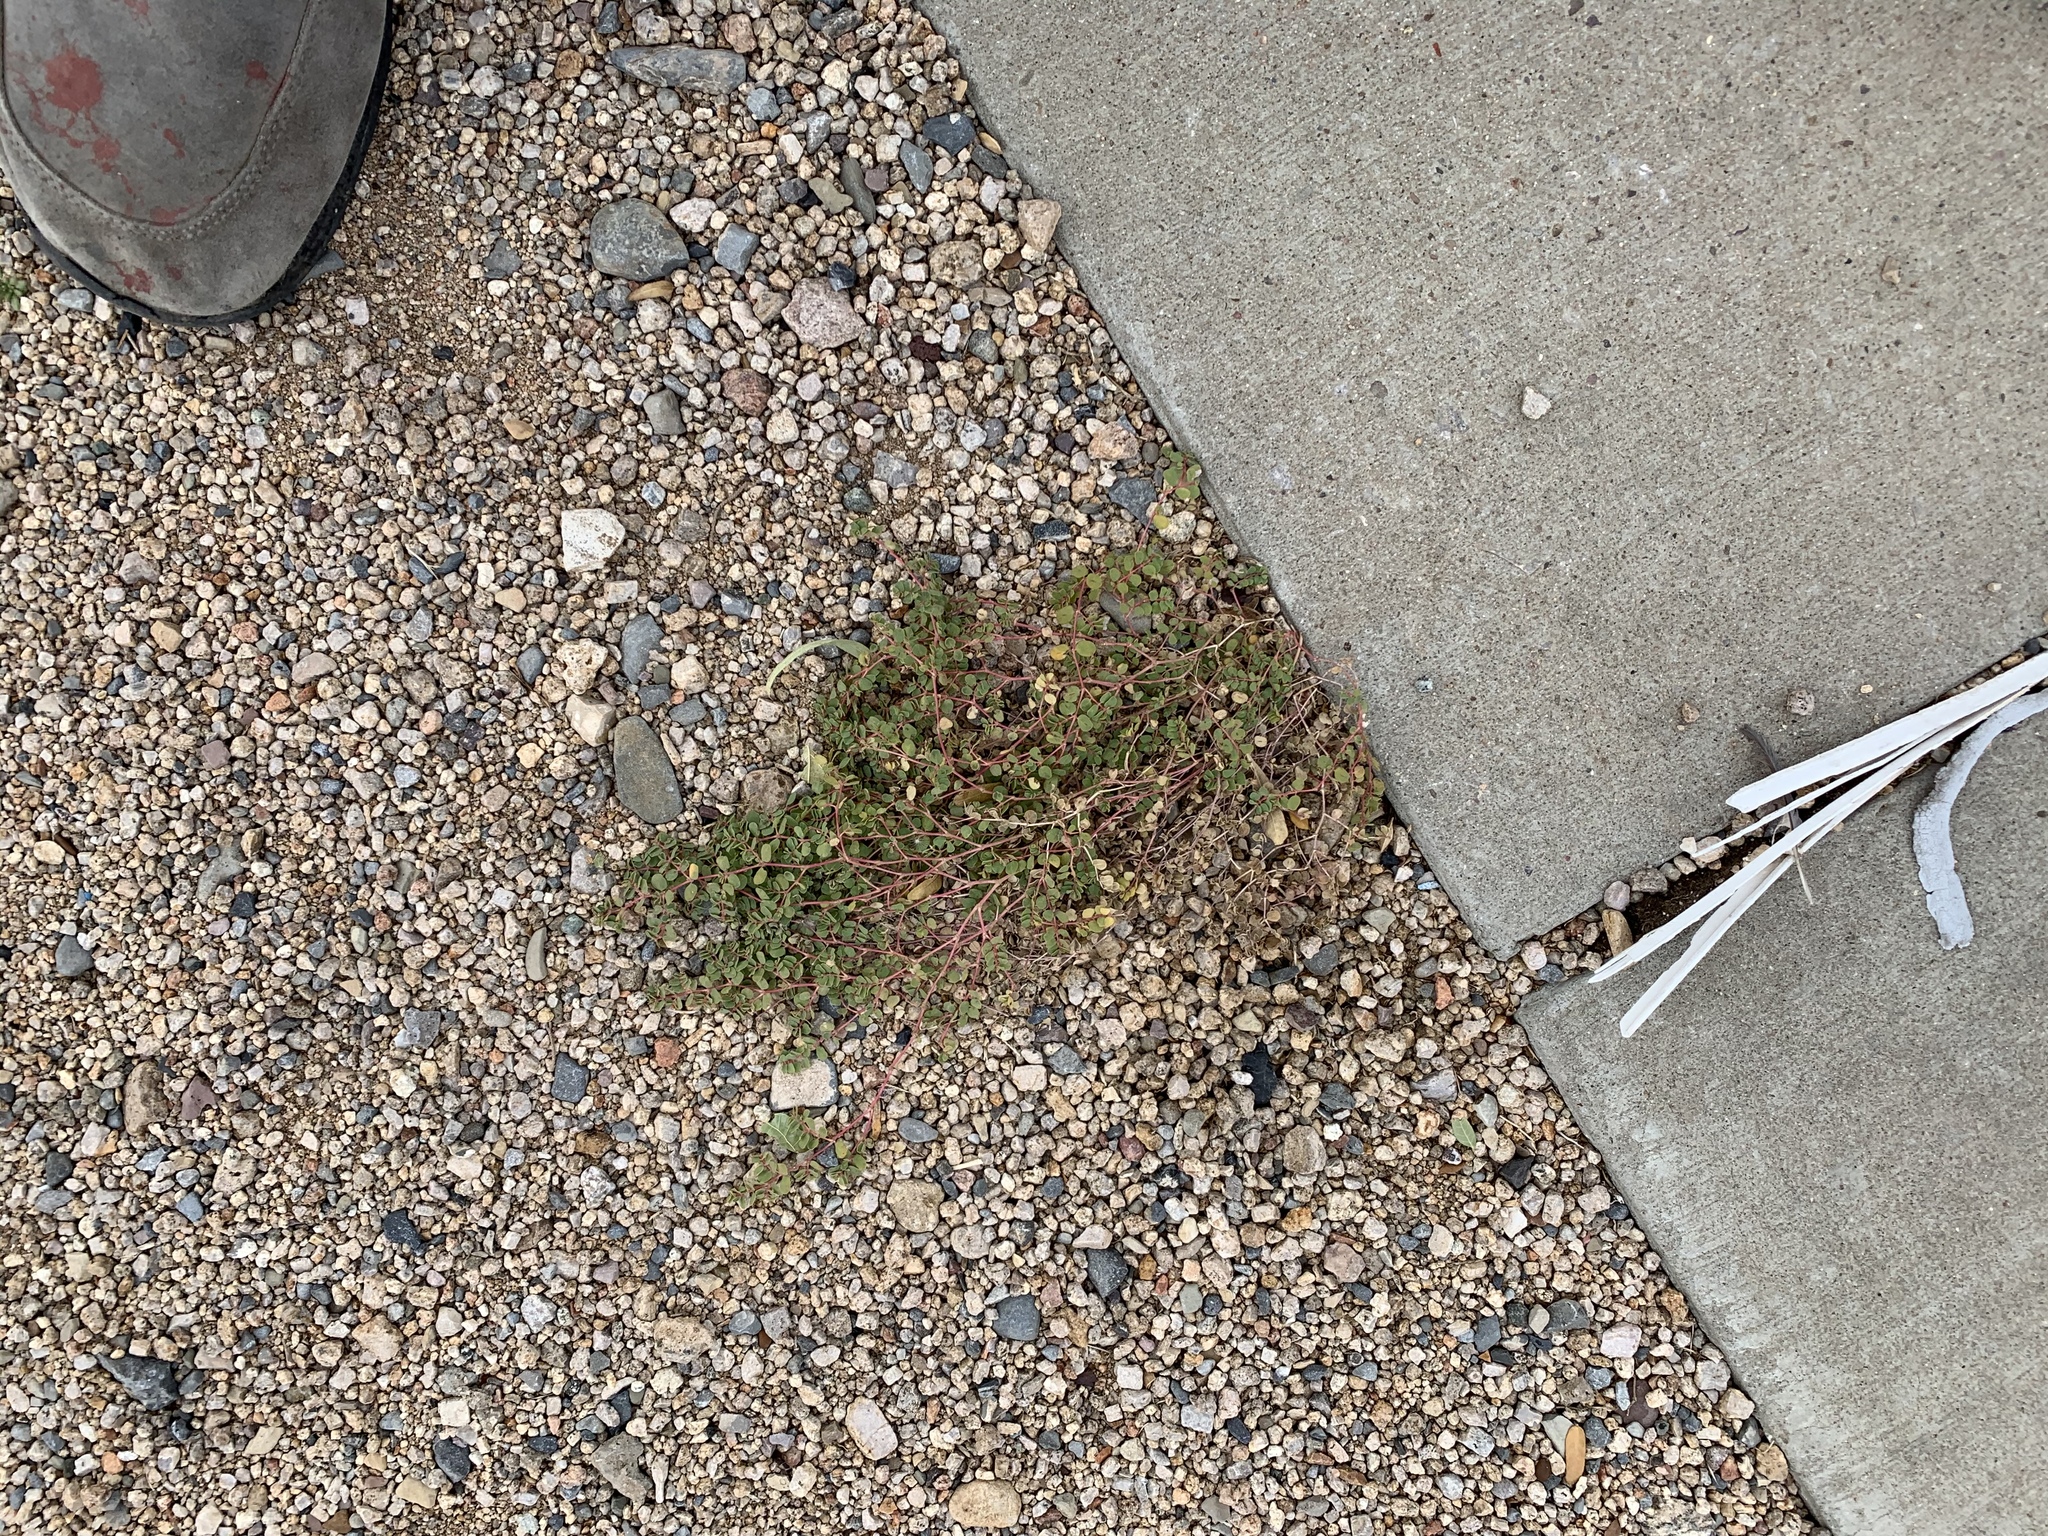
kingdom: Plantae
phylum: Tracheophyta
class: Magnoliopsida
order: Malpighiales
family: Euphorbiaceae
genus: Euphorbia
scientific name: Euphorbia albomarginata
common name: Whitemargin sandmat
